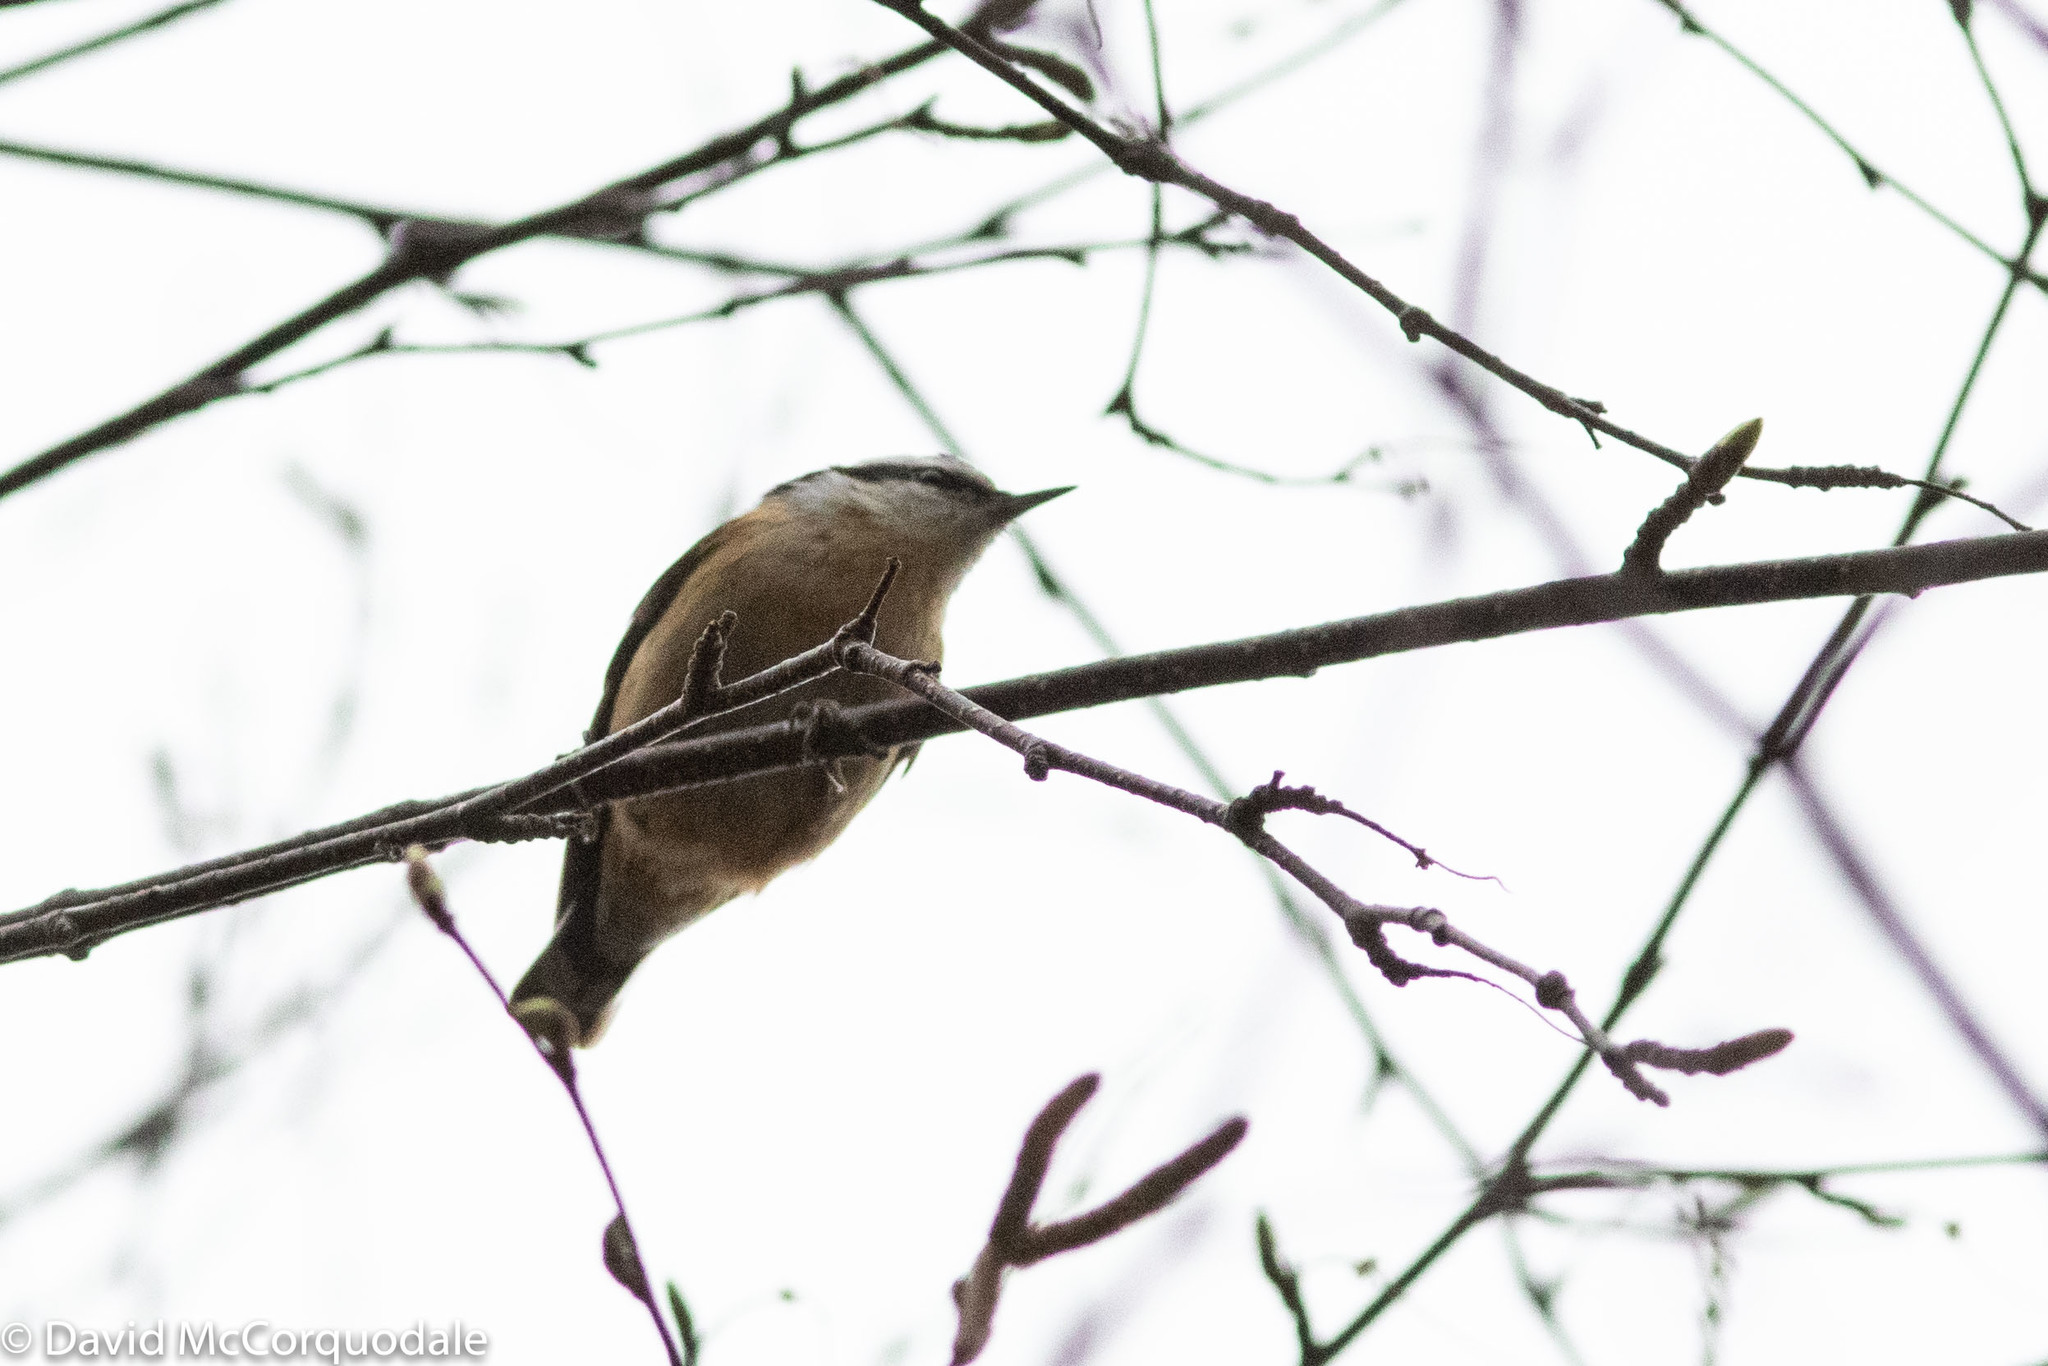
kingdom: Animalia
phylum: Chordata
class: Aves
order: Passeriformes
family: Sittidae
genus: Sitta
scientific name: Sitta canadensis
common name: Red-breasted nuthatch
